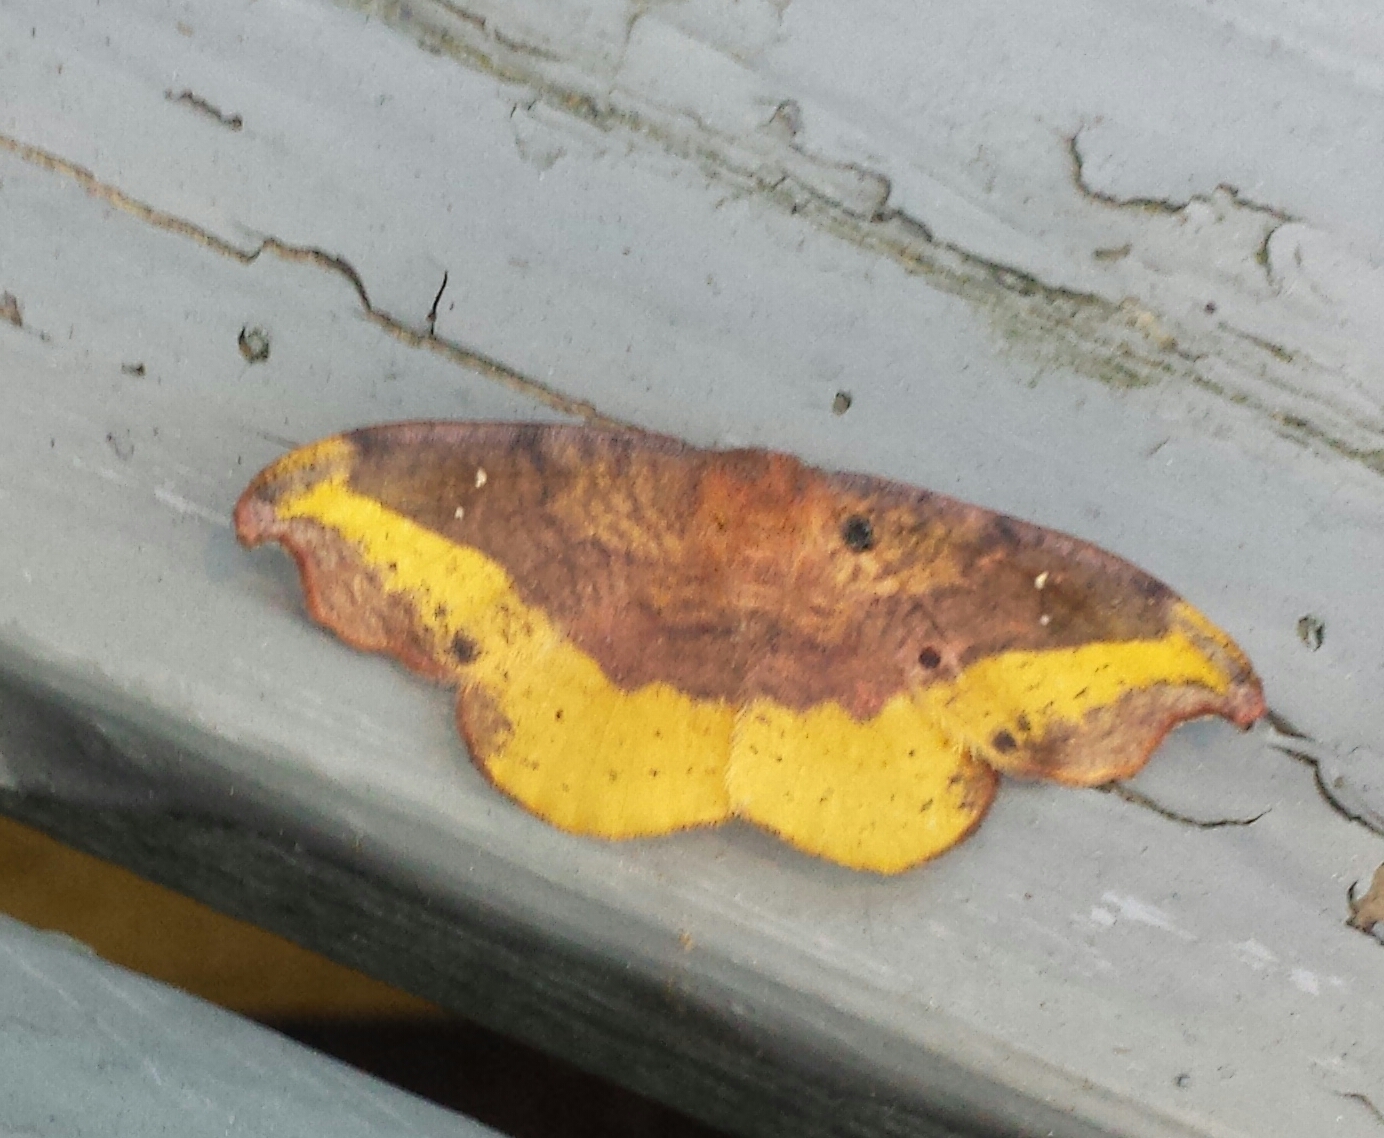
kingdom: Animalia
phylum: Arthropoda
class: Insecta
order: Lepidoptera
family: Drepanidae
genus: Oreta
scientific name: Oreta rosea
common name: Rose hooktip
